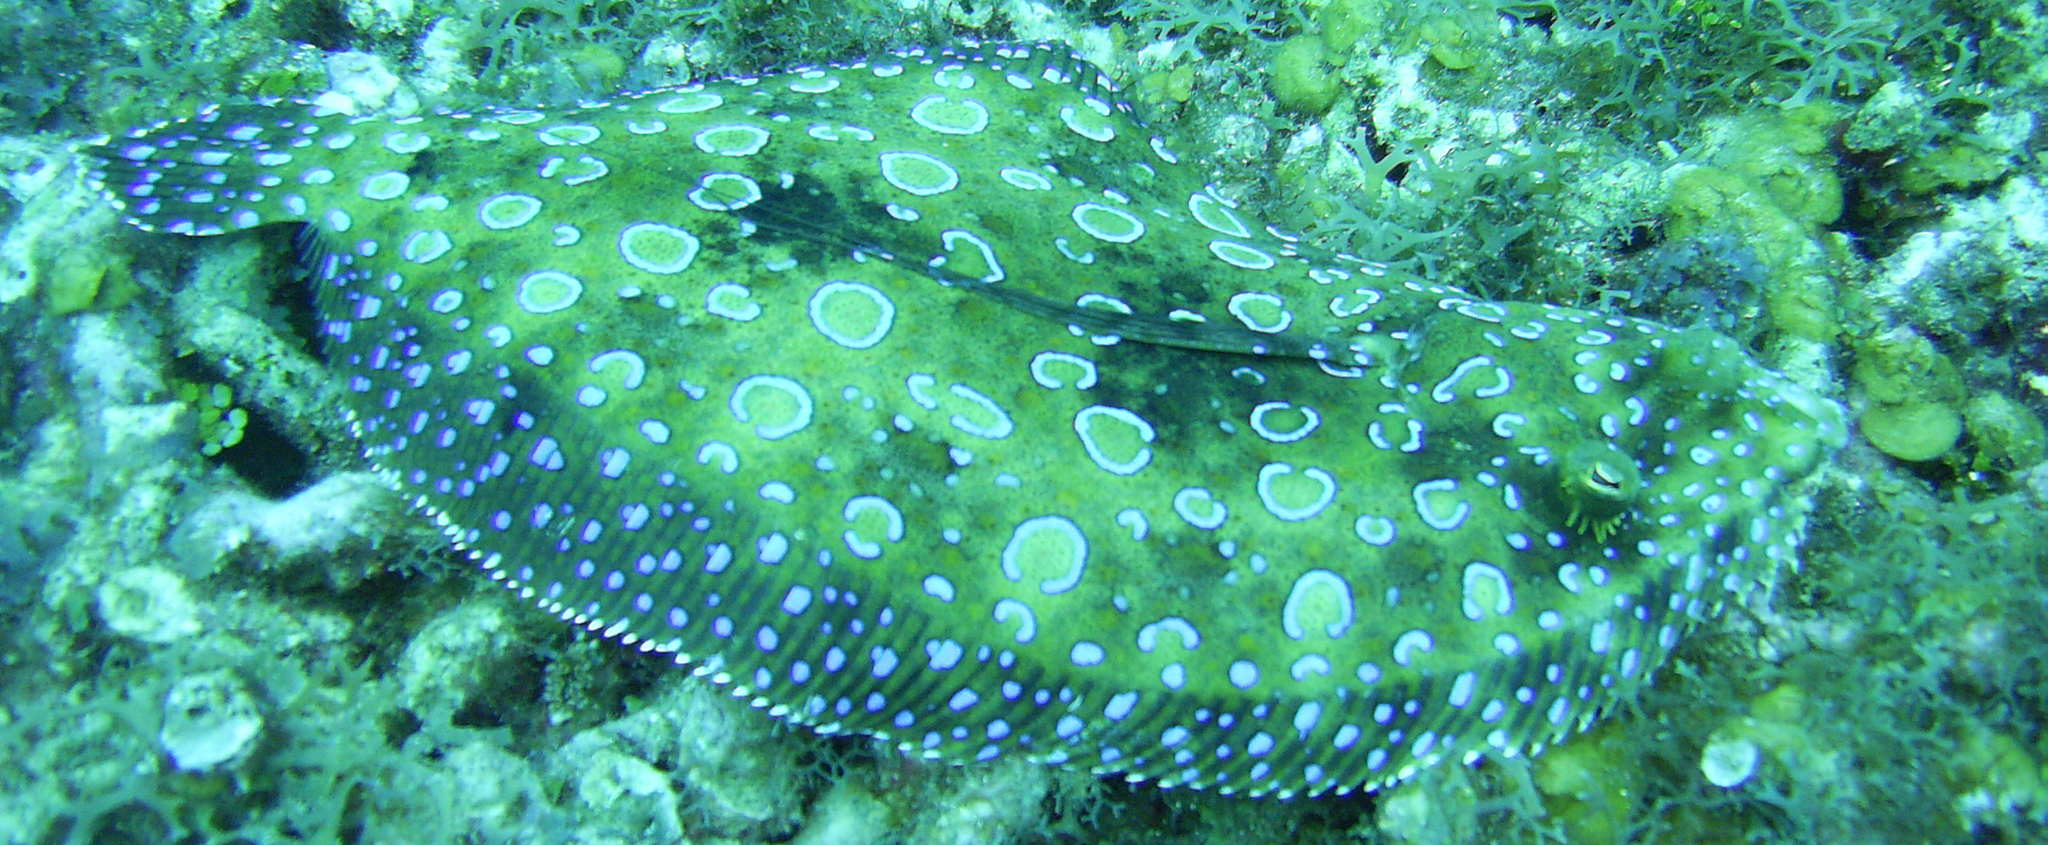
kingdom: Animalia
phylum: Chordata
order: Pleuronectiformes
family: Bothidae
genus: Bothus
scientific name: Bothus lunatus
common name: Peacock flounder
